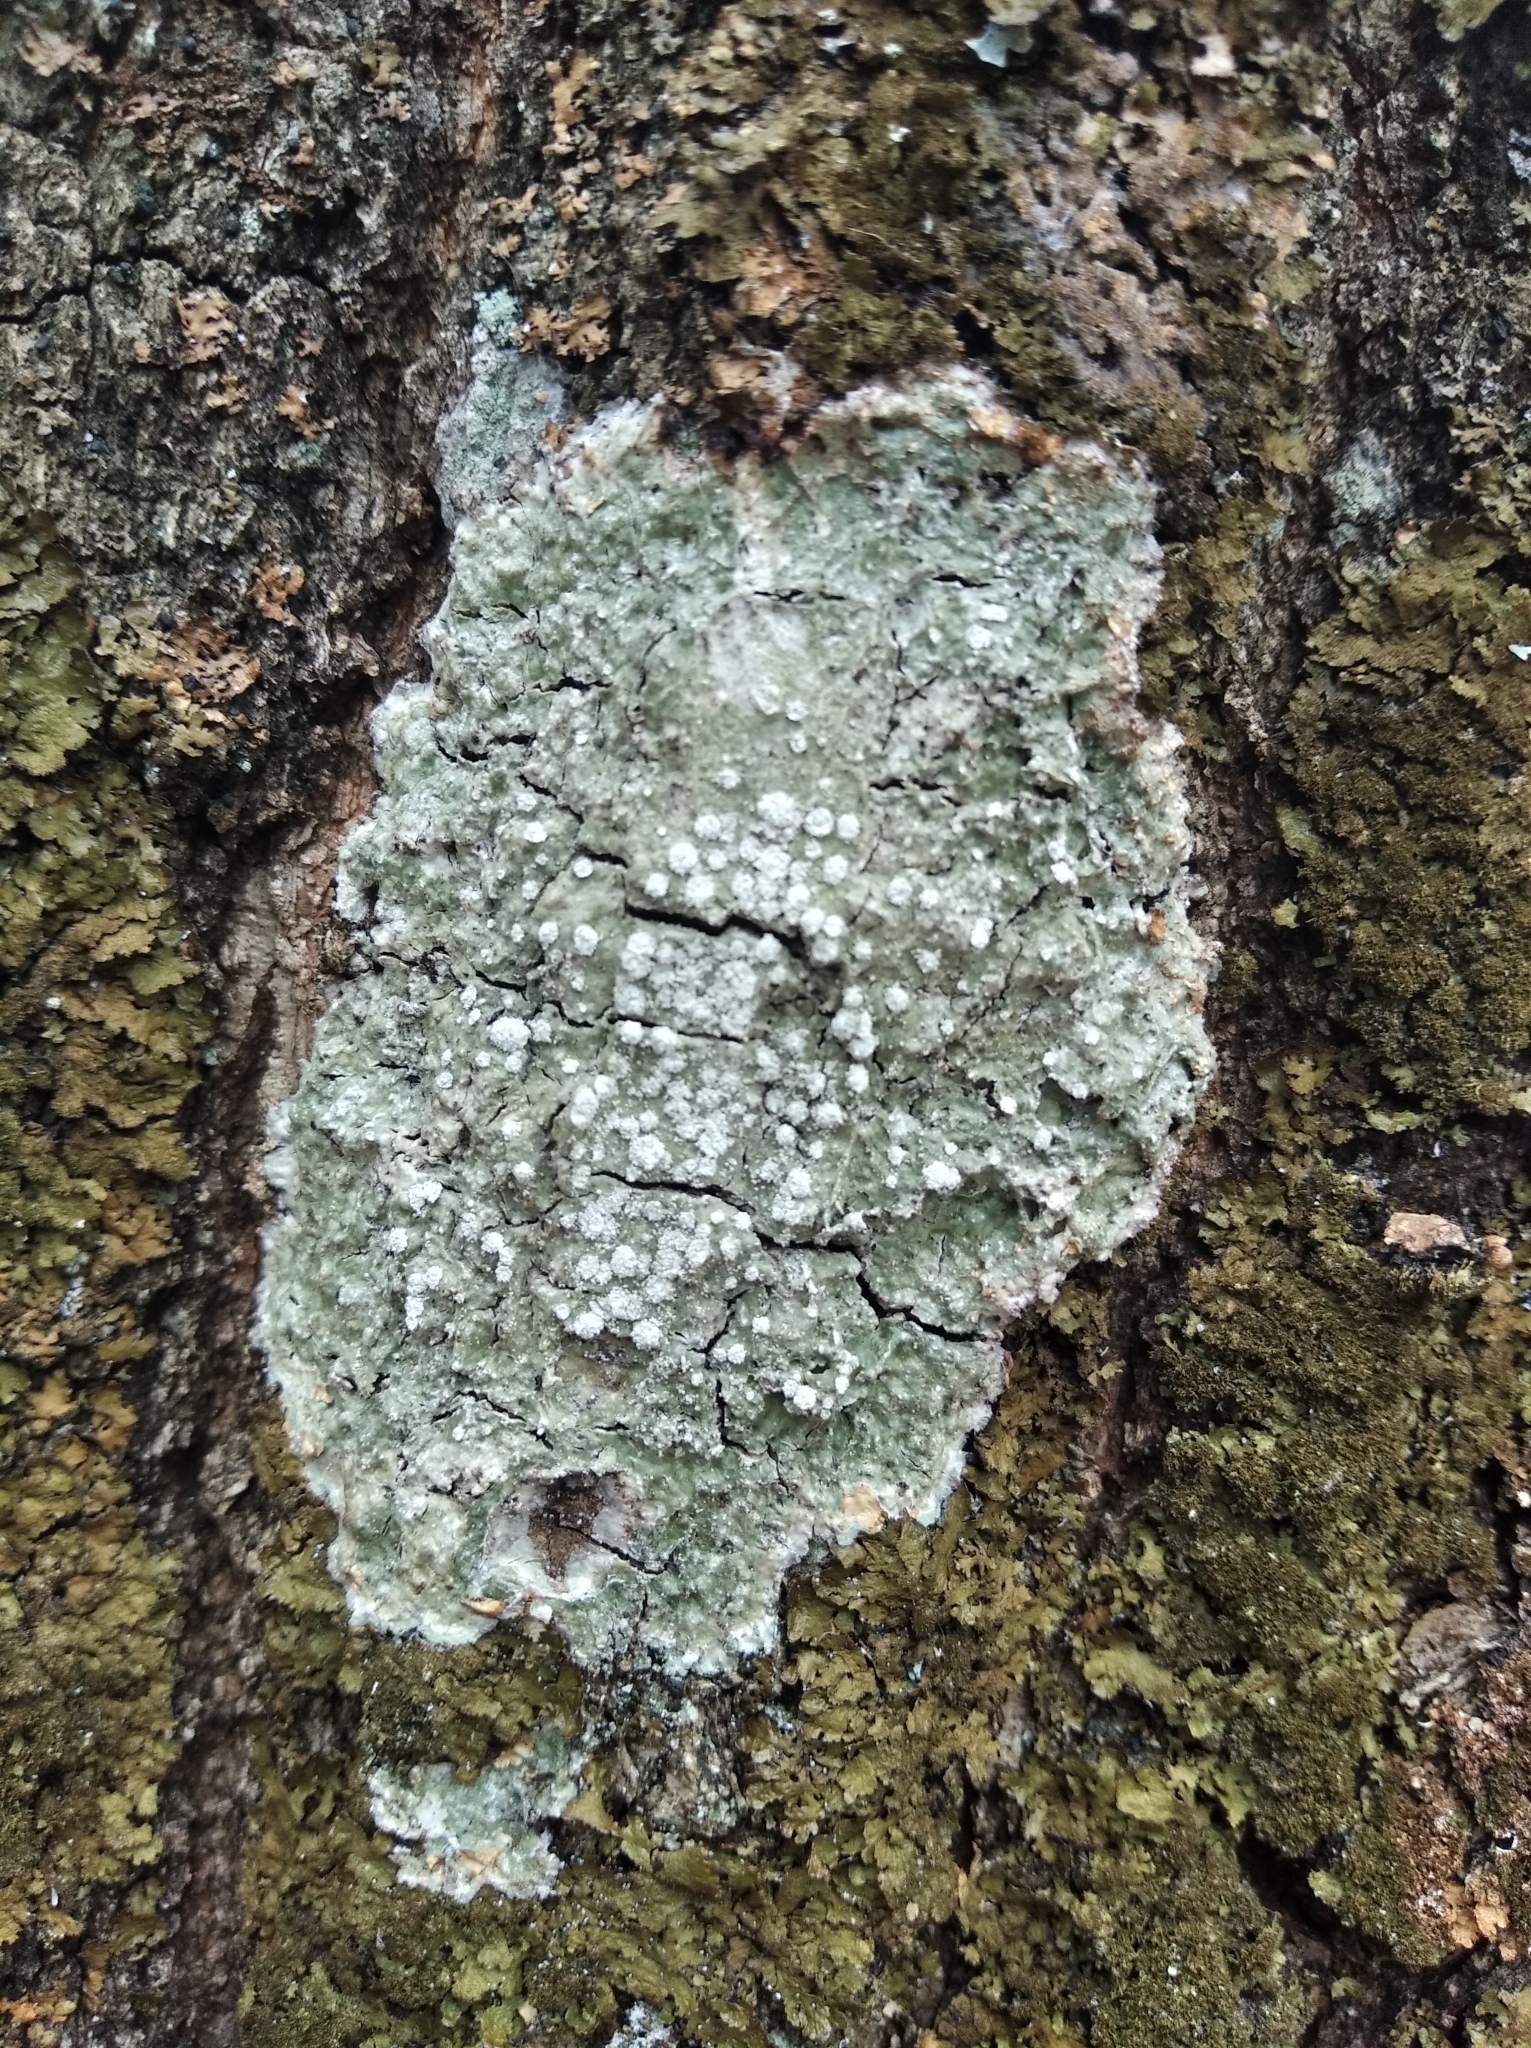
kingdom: Fungi
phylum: Ascomycota
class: Lecanoromycetes
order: Pertusariales
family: Pertusariaceae
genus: Lepra
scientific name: Lepra amara
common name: Bitter wart lichen
